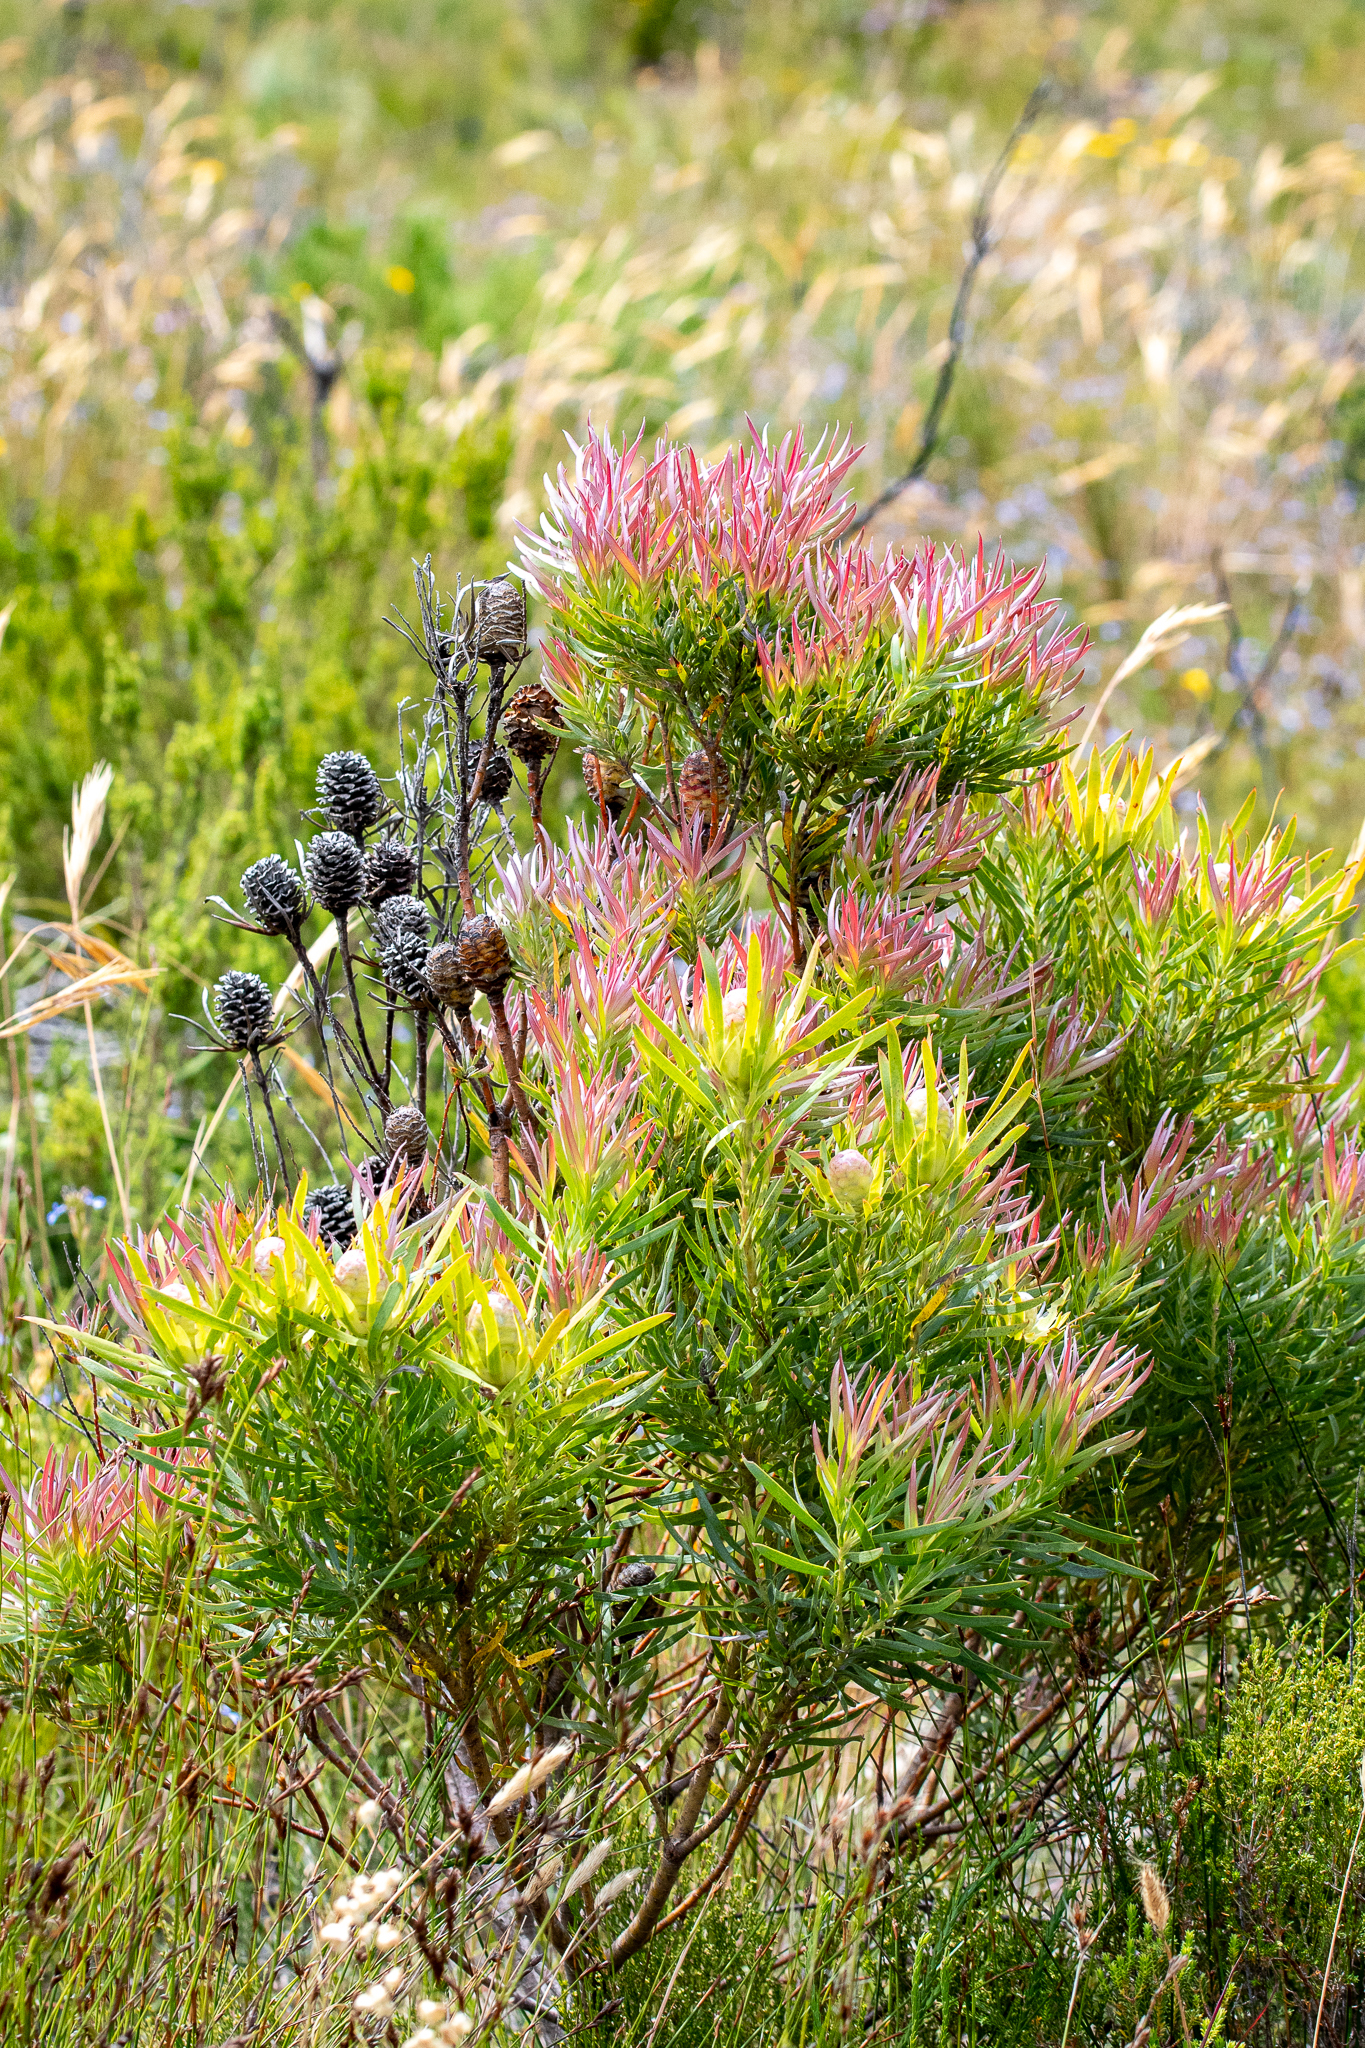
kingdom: Plantae
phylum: Tracheophyta
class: Magnoliopsida
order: Proteales
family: Proteaceae
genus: Leucadendron
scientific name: Leucadendron xanthoconus
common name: Sickle-leaf conebush
